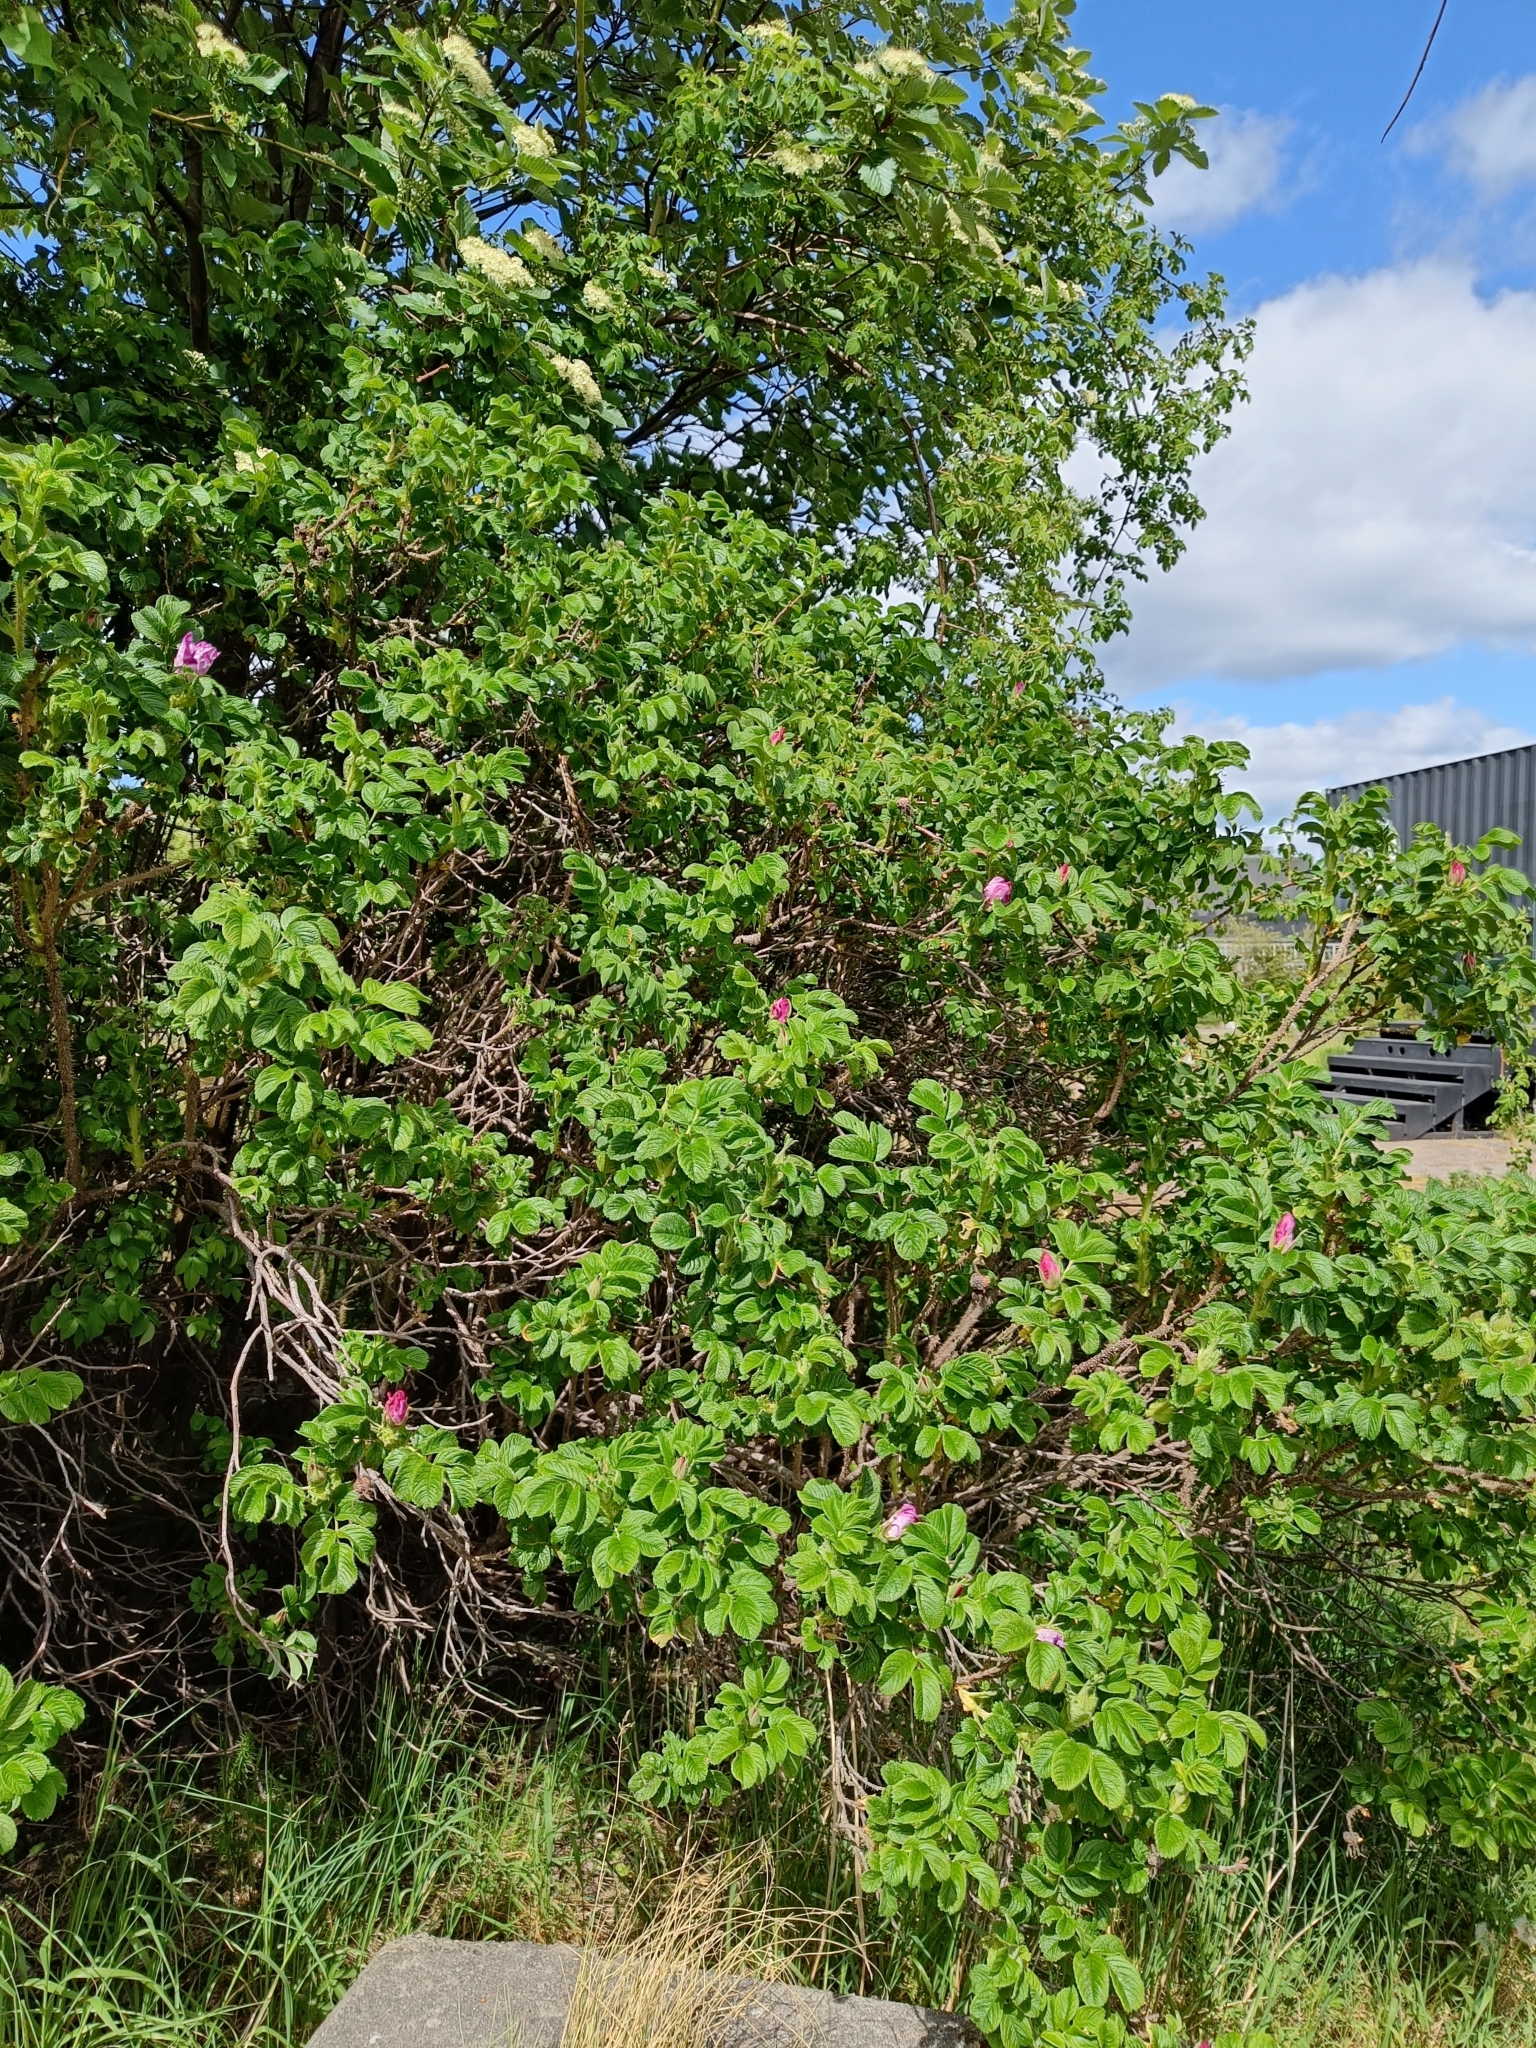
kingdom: Plantae
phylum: Tracheophyta
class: Magnoliopsida
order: Rosales
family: Rosaceae
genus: Rosa
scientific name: Rosa rugosa
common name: Japanese rose
